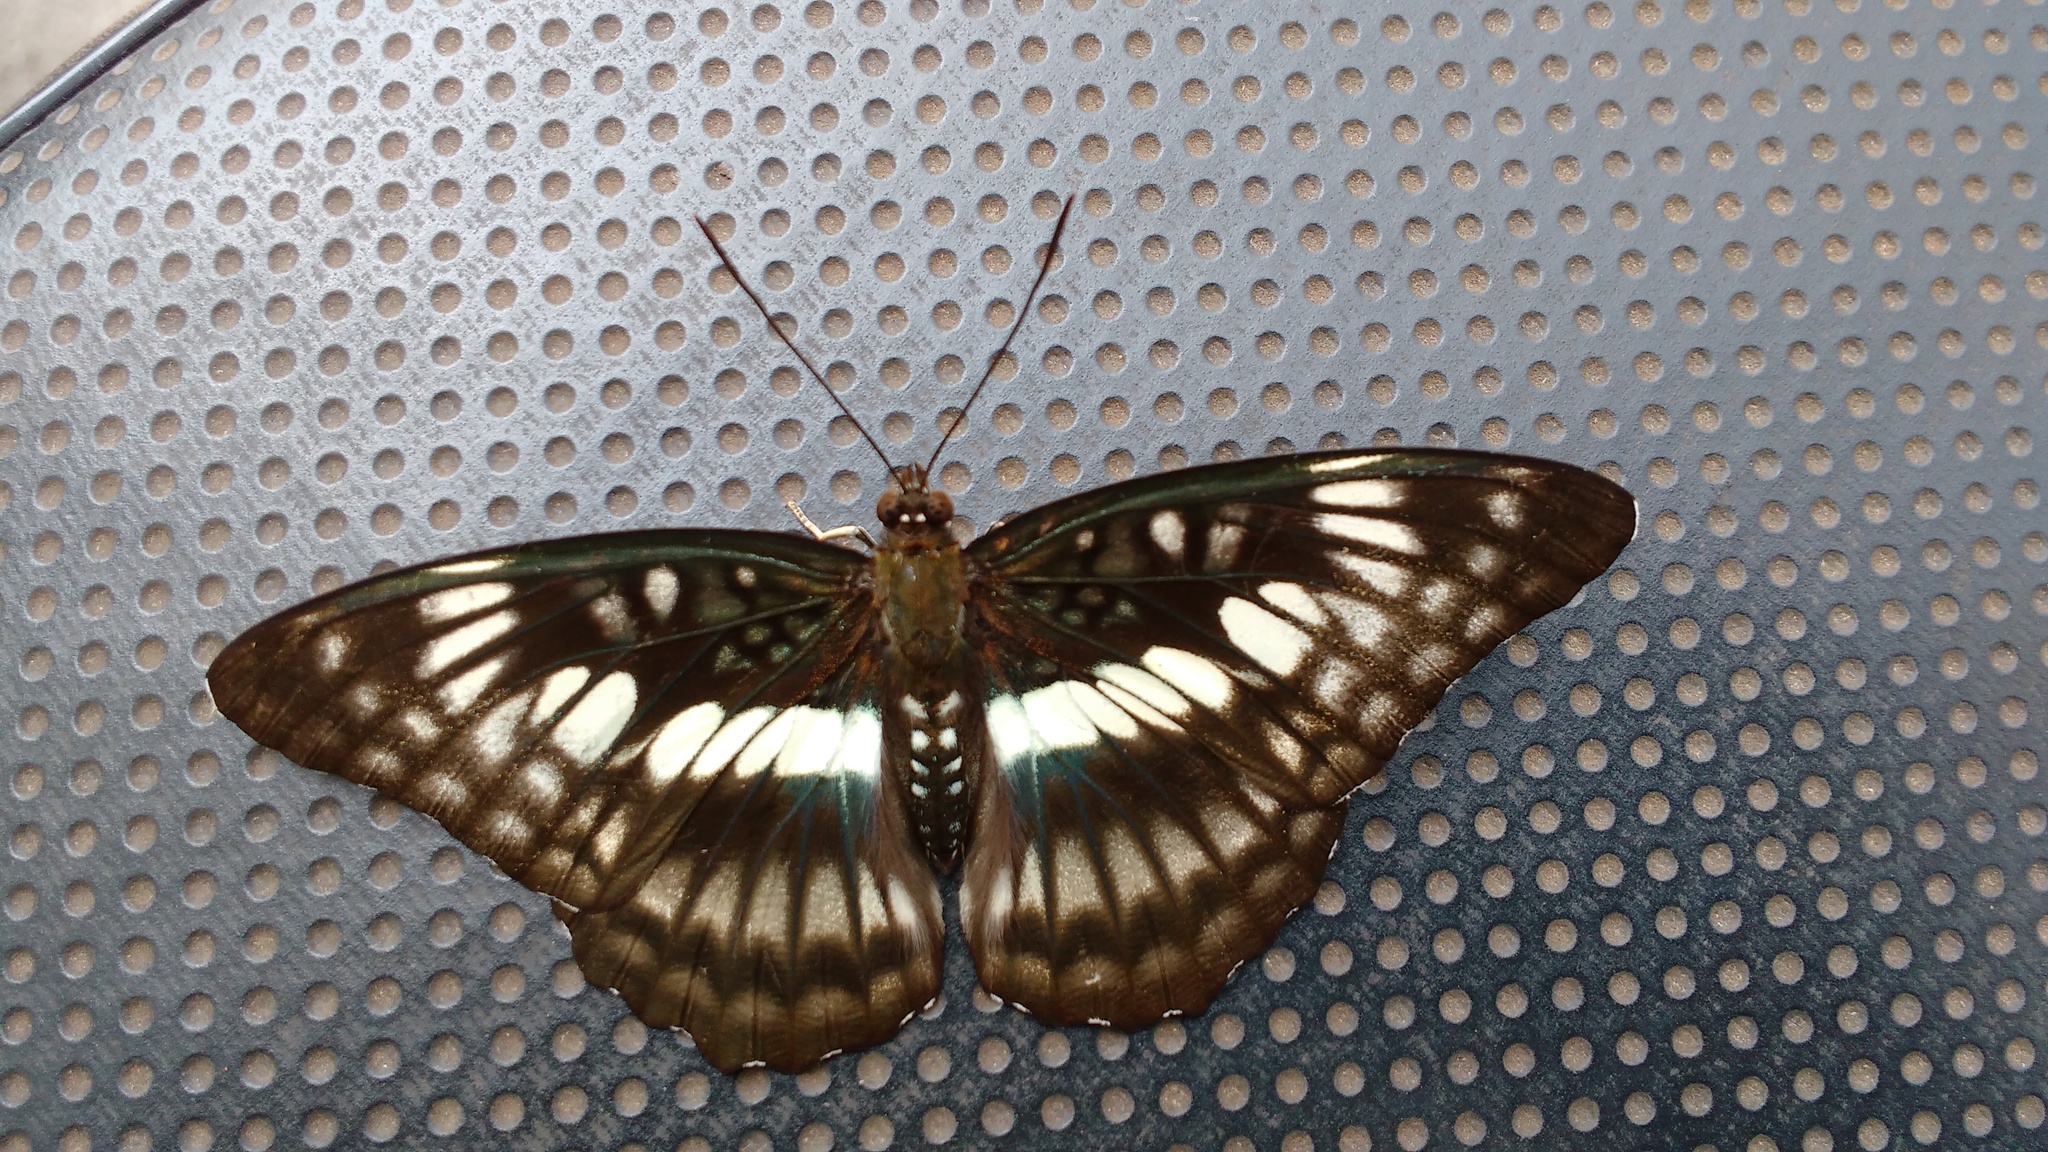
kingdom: Animalia
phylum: Arthropoda
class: Insecta
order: Lepidoptera
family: Nymphalidae
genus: Parathyma
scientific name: Parathyma ranga
